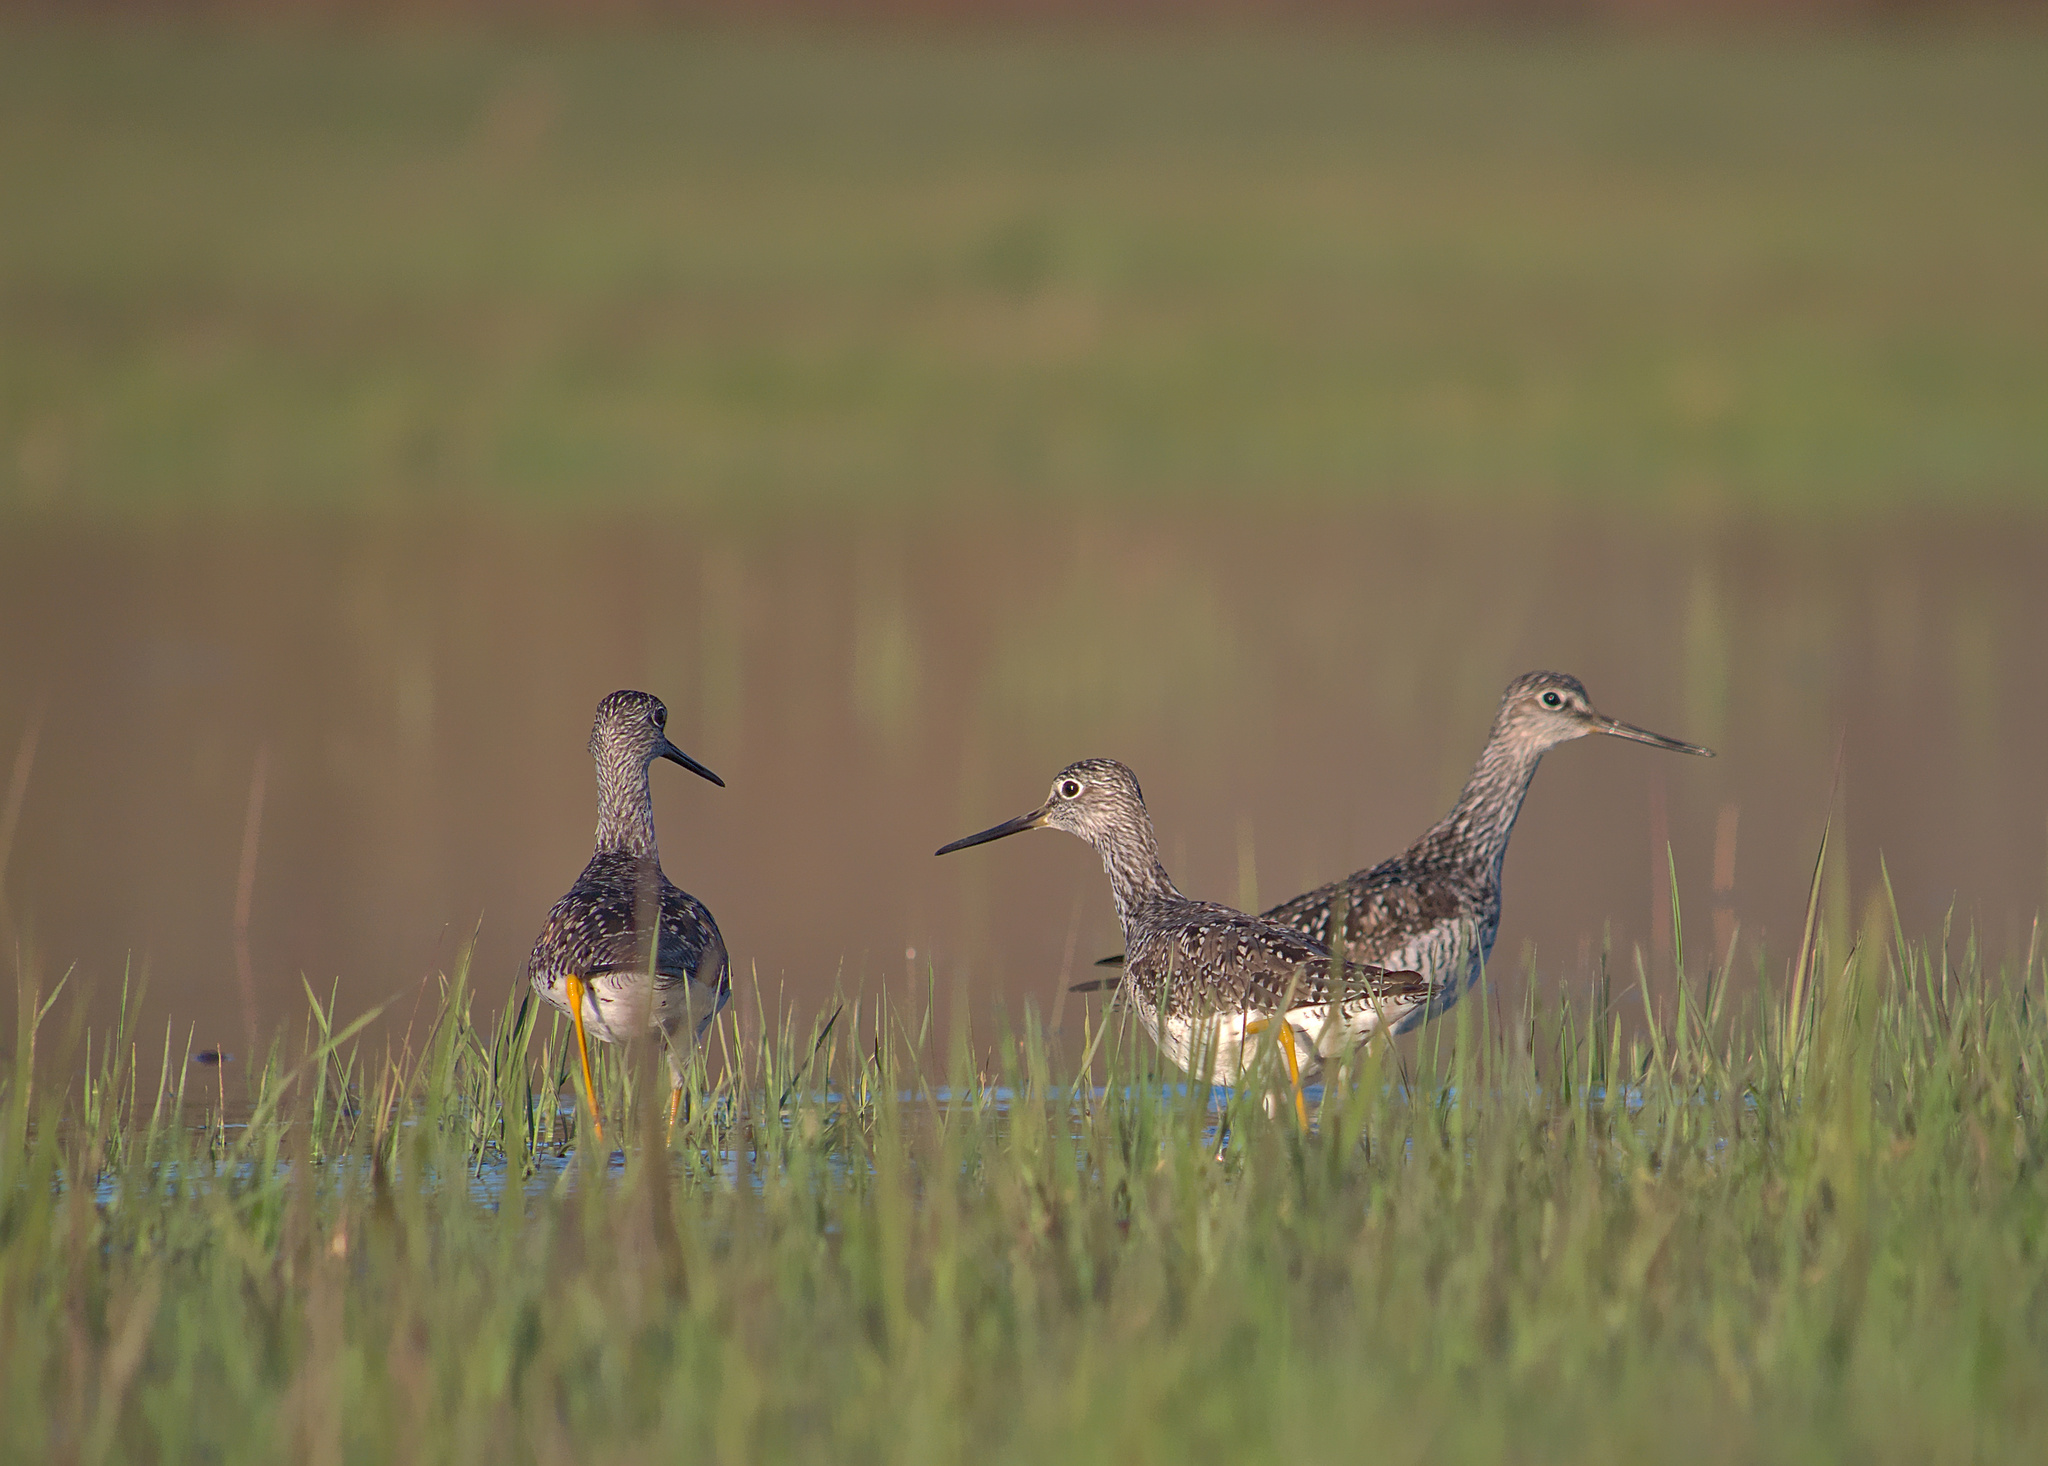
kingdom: Animalia
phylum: Chordata
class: Aves
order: Charadriiformes
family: Scolopacidae
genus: Tringa
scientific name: Tringa melanoleuca
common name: Greater yellowlegs
